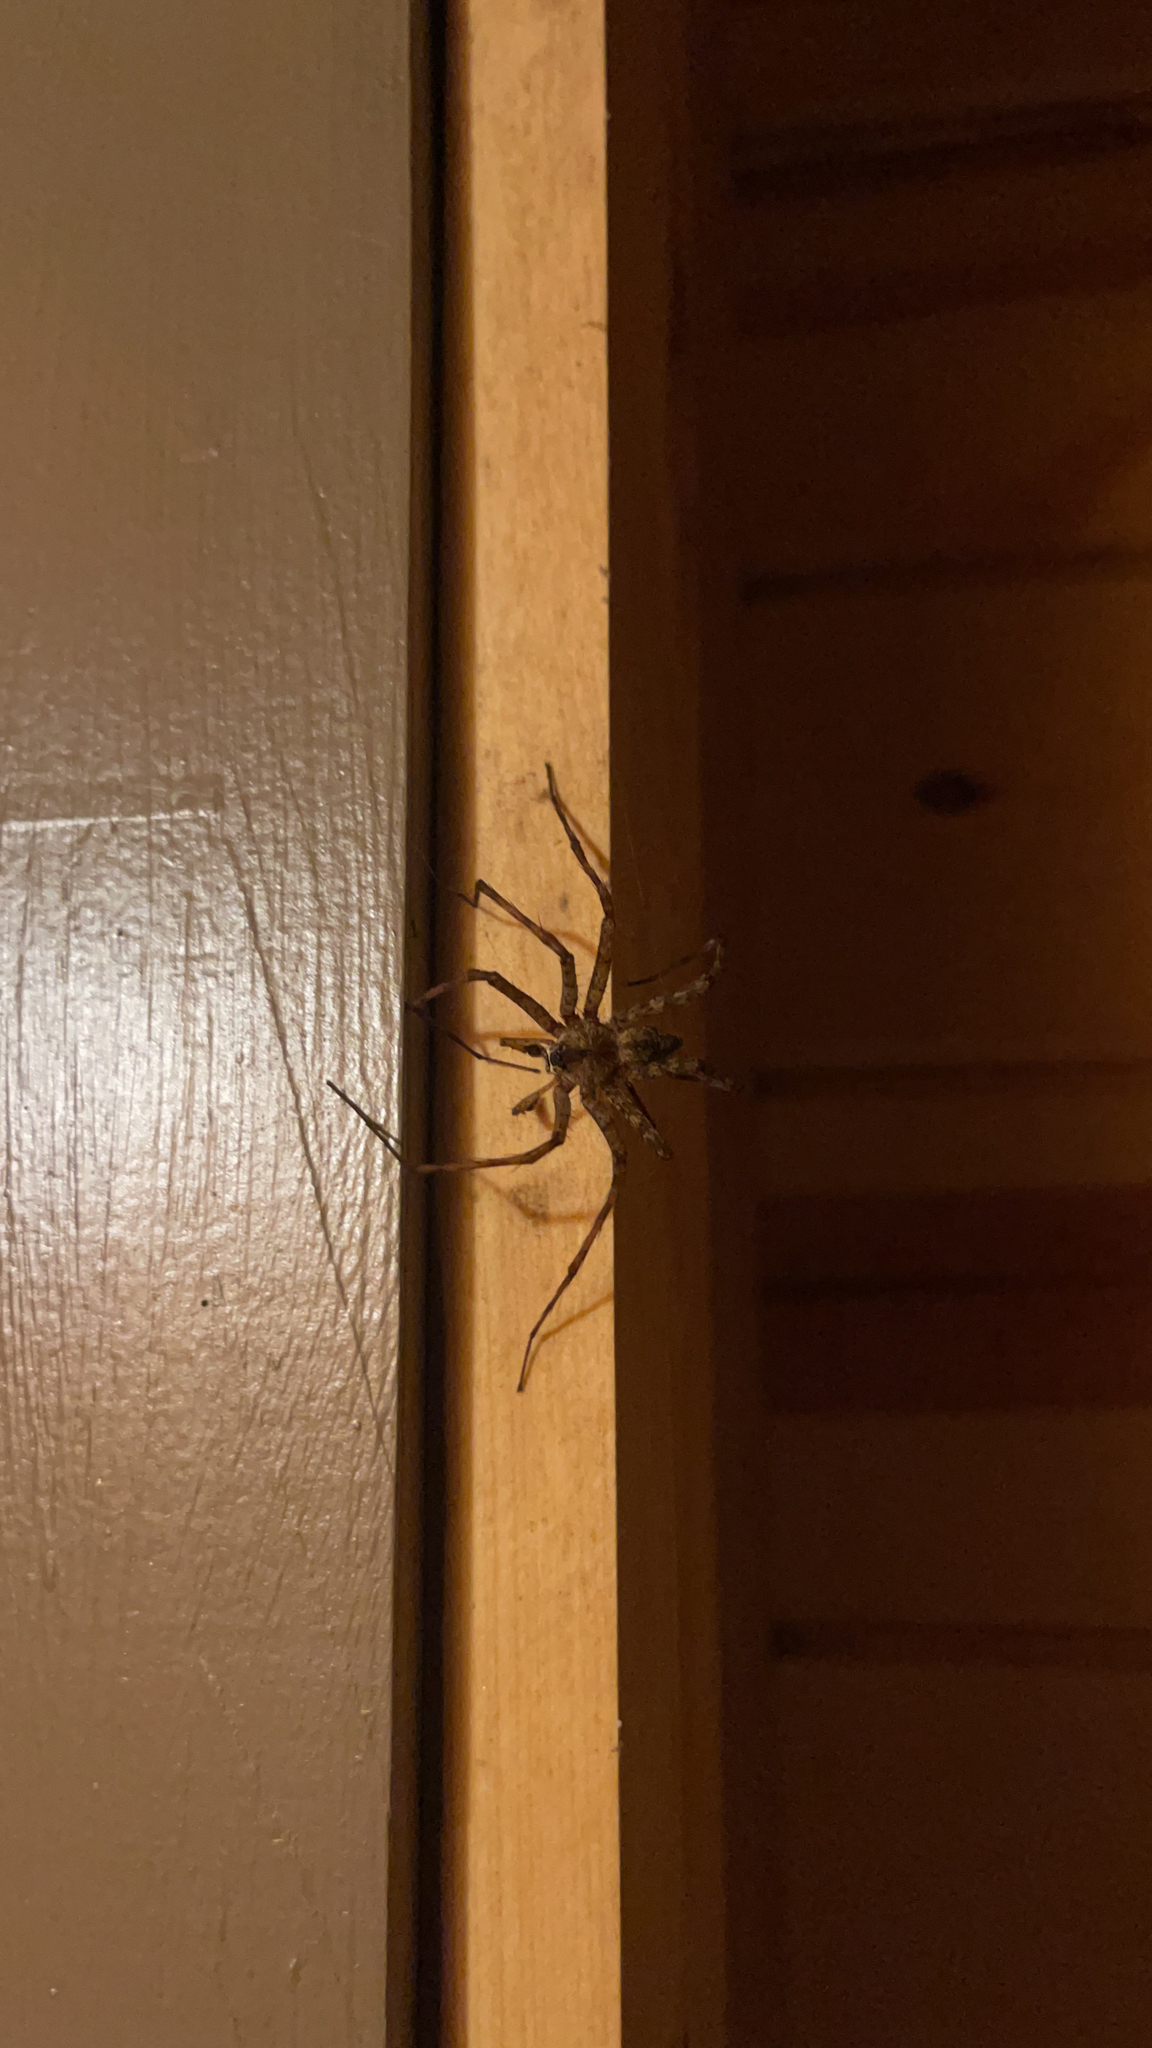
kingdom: Animalia
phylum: Arthropoda
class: Arachnida
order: Araneae
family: Pisauridae
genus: Dolomedes
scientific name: Dolomedes albineus
